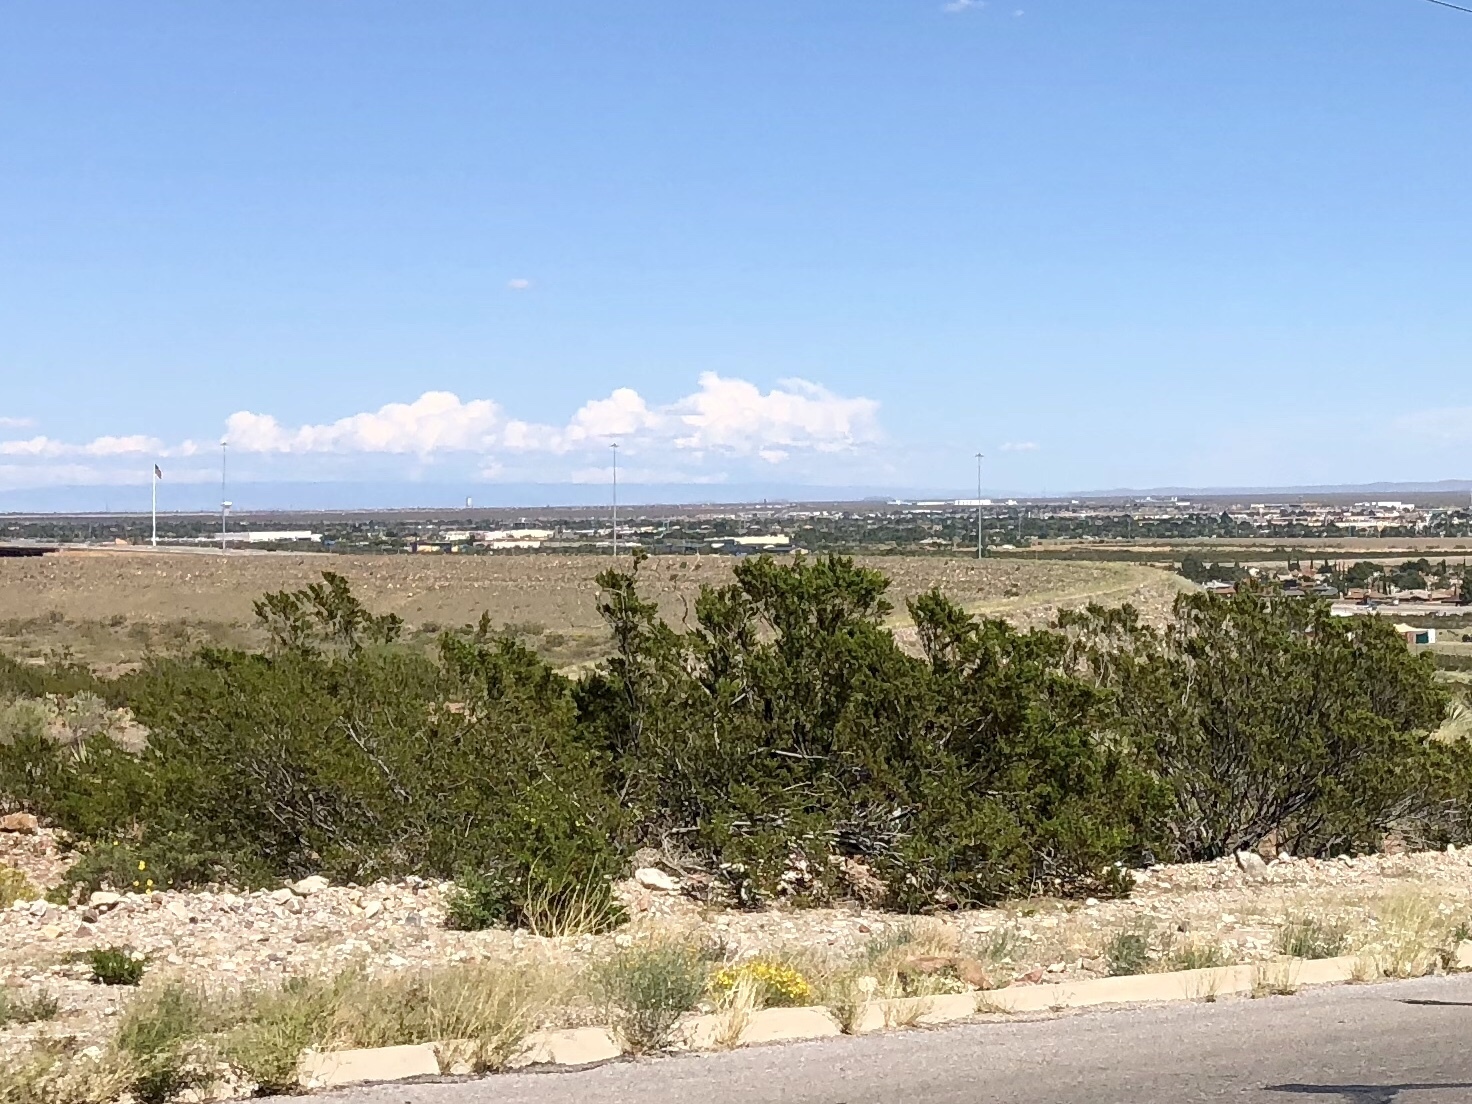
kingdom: Plantae
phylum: Tracheophyta
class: Magnoliopsida
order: Zygophyllales
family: Zygophyllaceae
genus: Larrea
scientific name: Larrea tridentata
